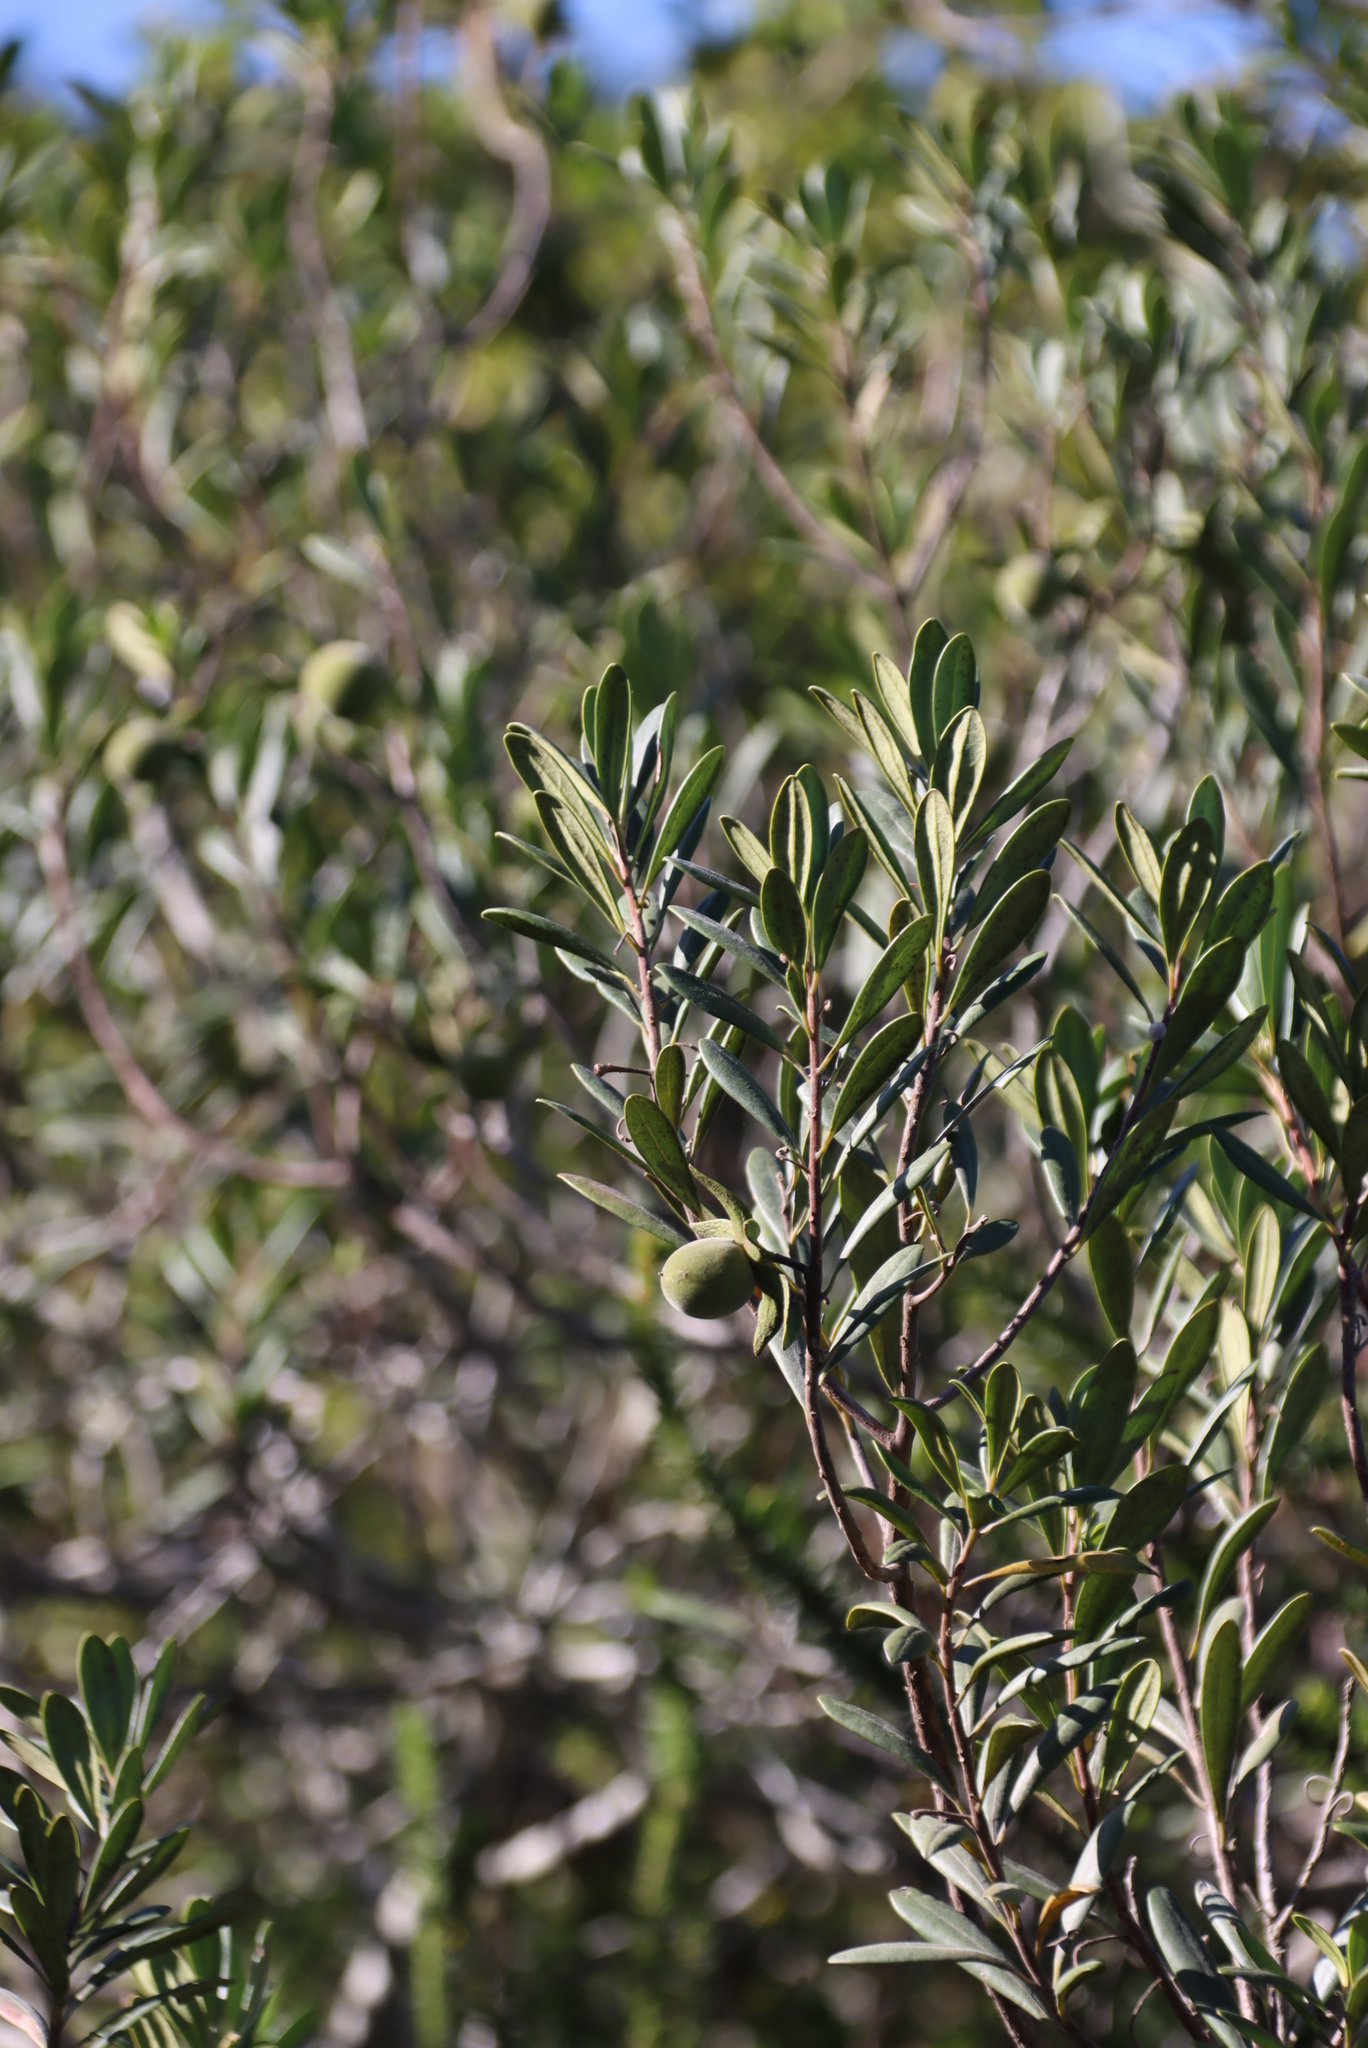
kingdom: Plantae
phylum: Tracheophyta
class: Magnoliopsida
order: Ericales
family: Ebenaceae
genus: Diospyros
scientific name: Diospyros dichrophylla
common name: Common star-apple
